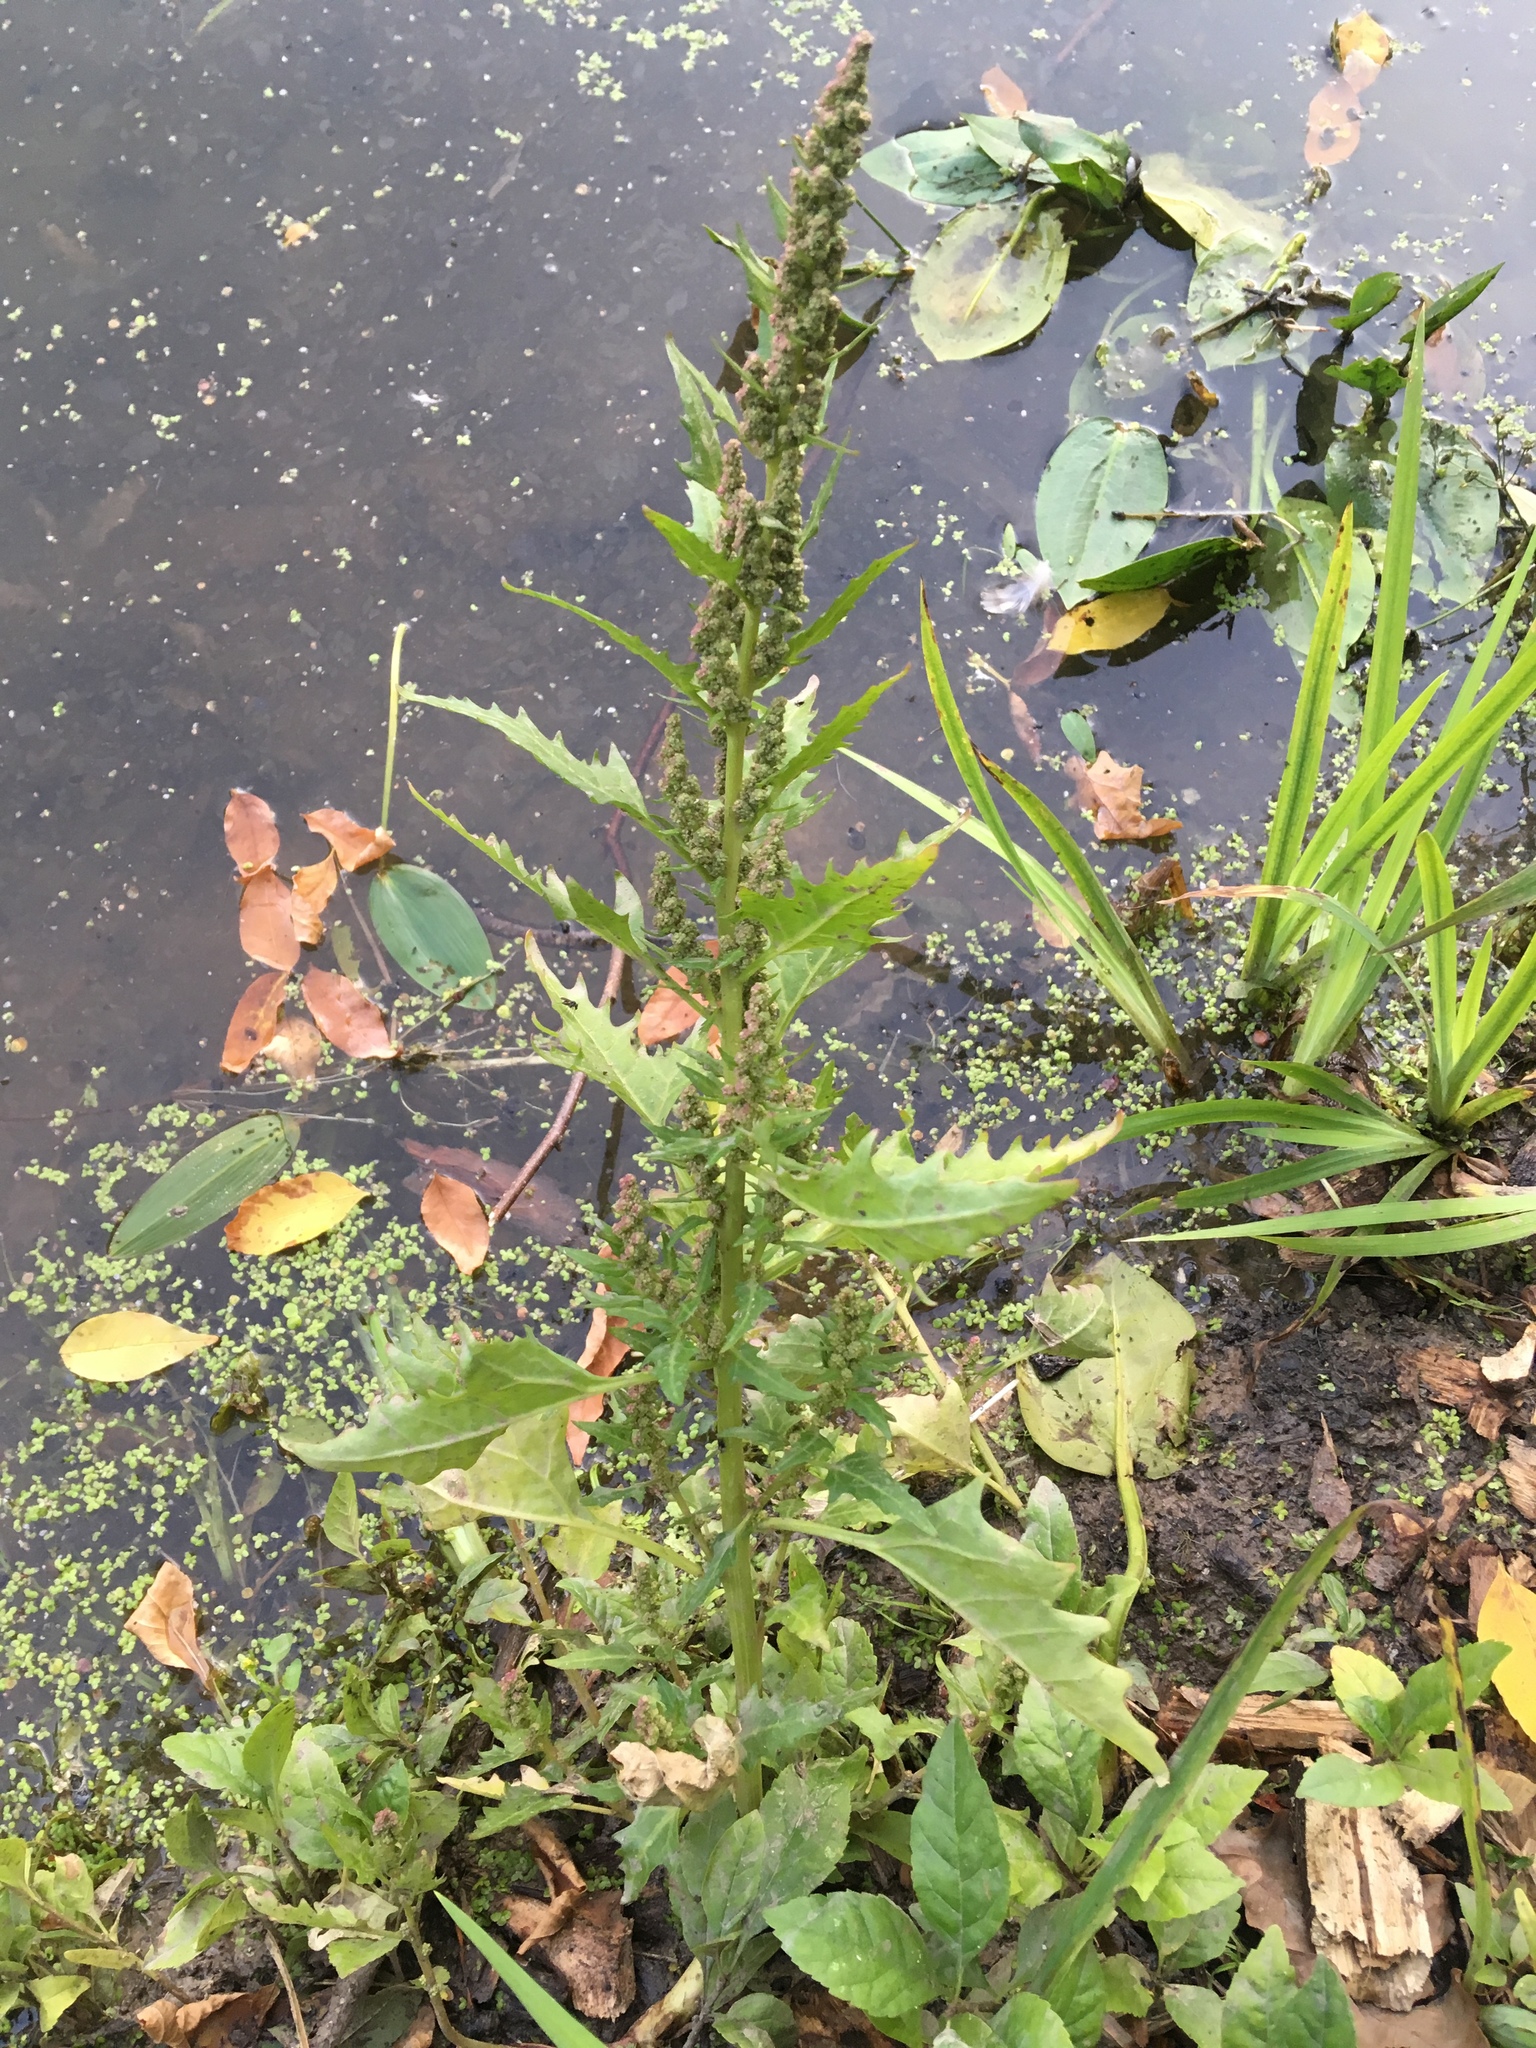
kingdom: Plantae
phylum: Tracheophyta
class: Magnoliopsida
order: Caryophyllales
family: Amaranthaceae
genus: Oxybasis
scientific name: Oxybasis rubra
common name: Red goosefoot
